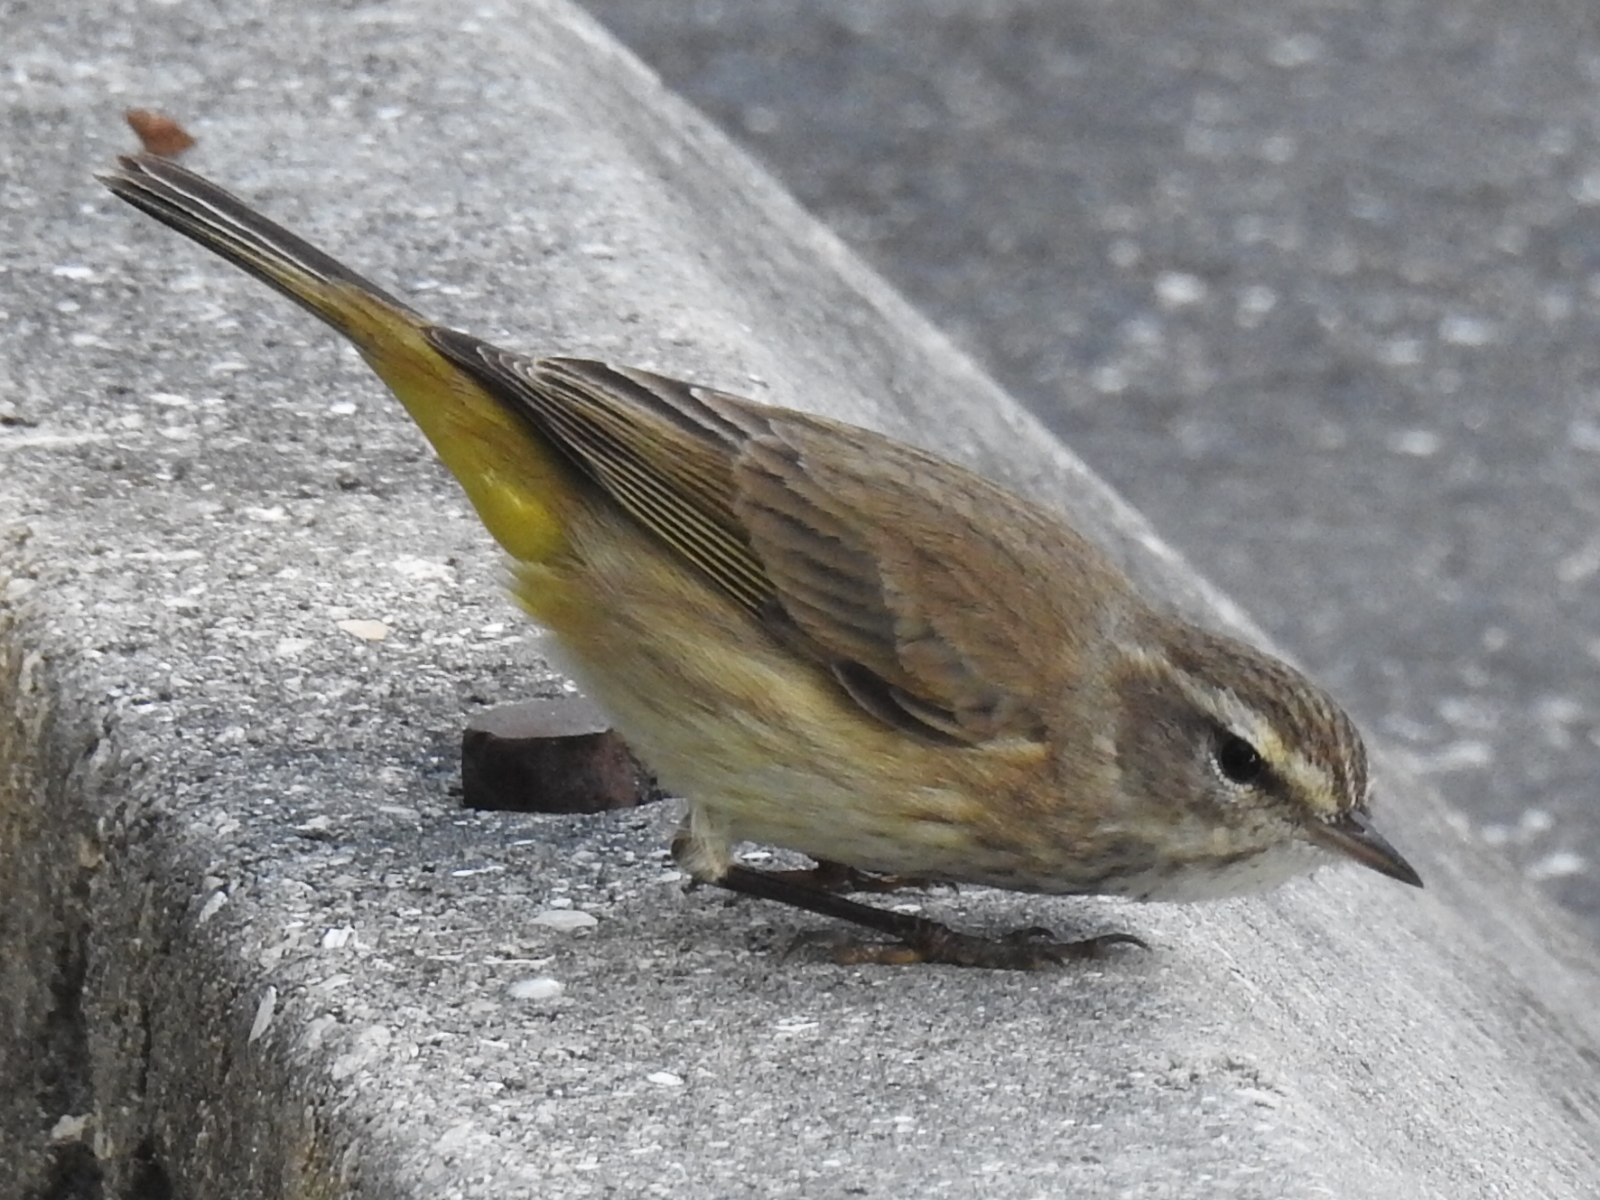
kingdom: Animalia
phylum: Chordata
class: Aves
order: Passeriformes
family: Parulidae
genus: Setophaga
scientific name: Setophaga palmarum
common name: Palm warbler
